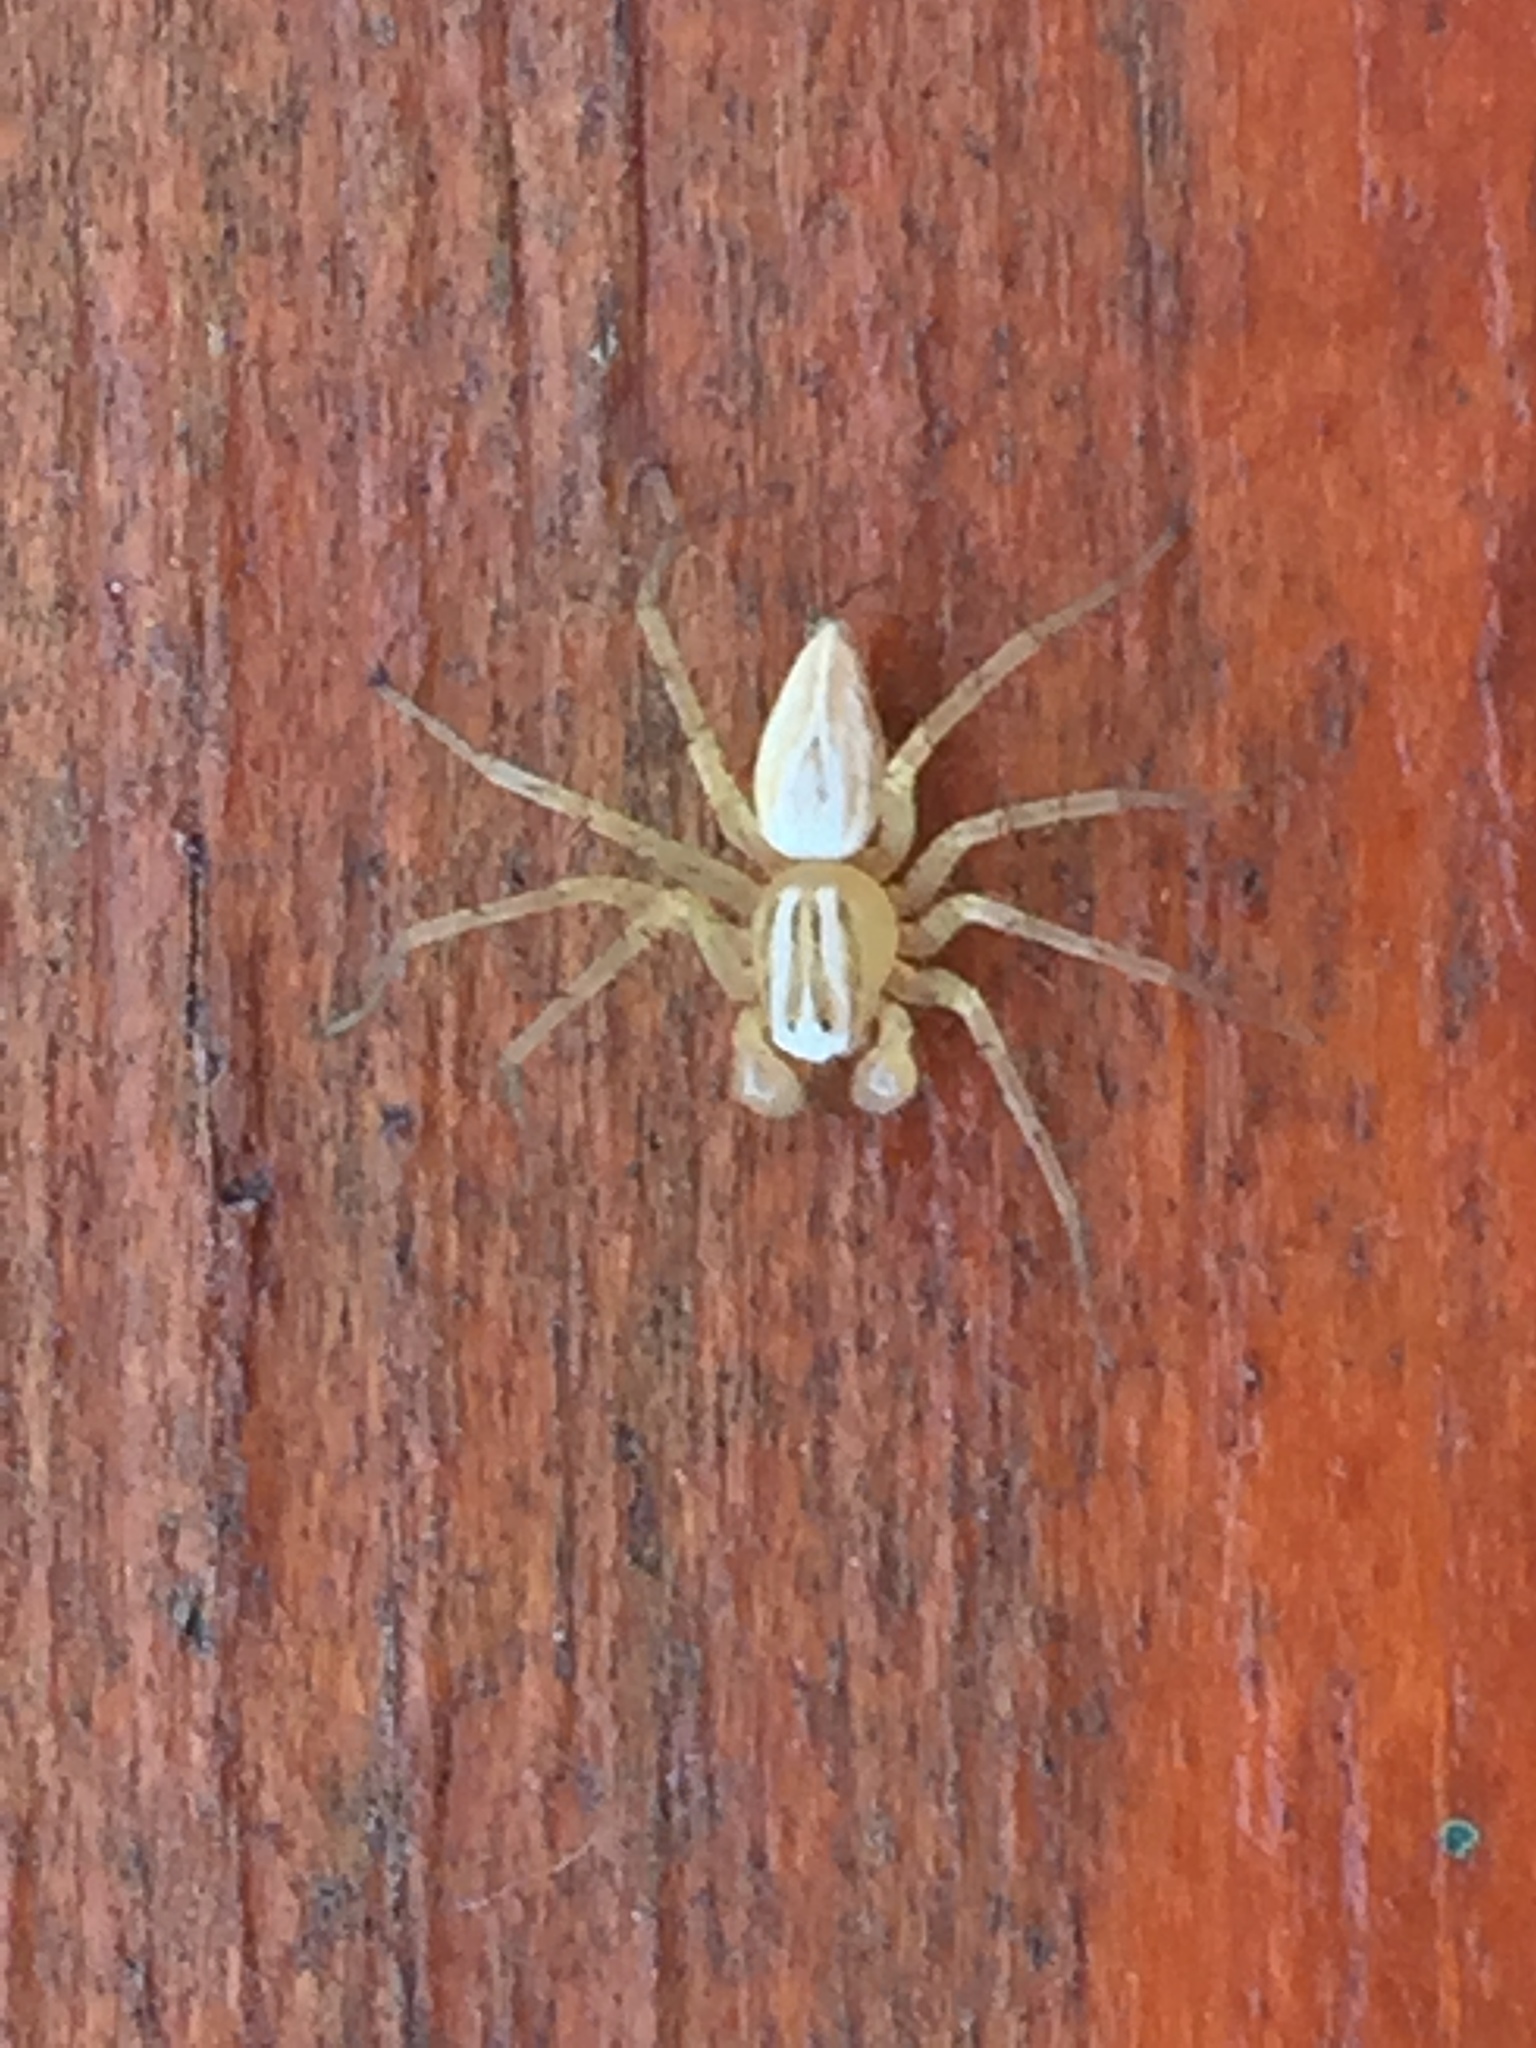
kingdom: Animalia
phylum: Arthropoda
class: Arachnida
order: Araneae
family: Oxyopidae
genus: Oxyopes
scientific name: Oxyopes salticus
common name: Lynx spiders
